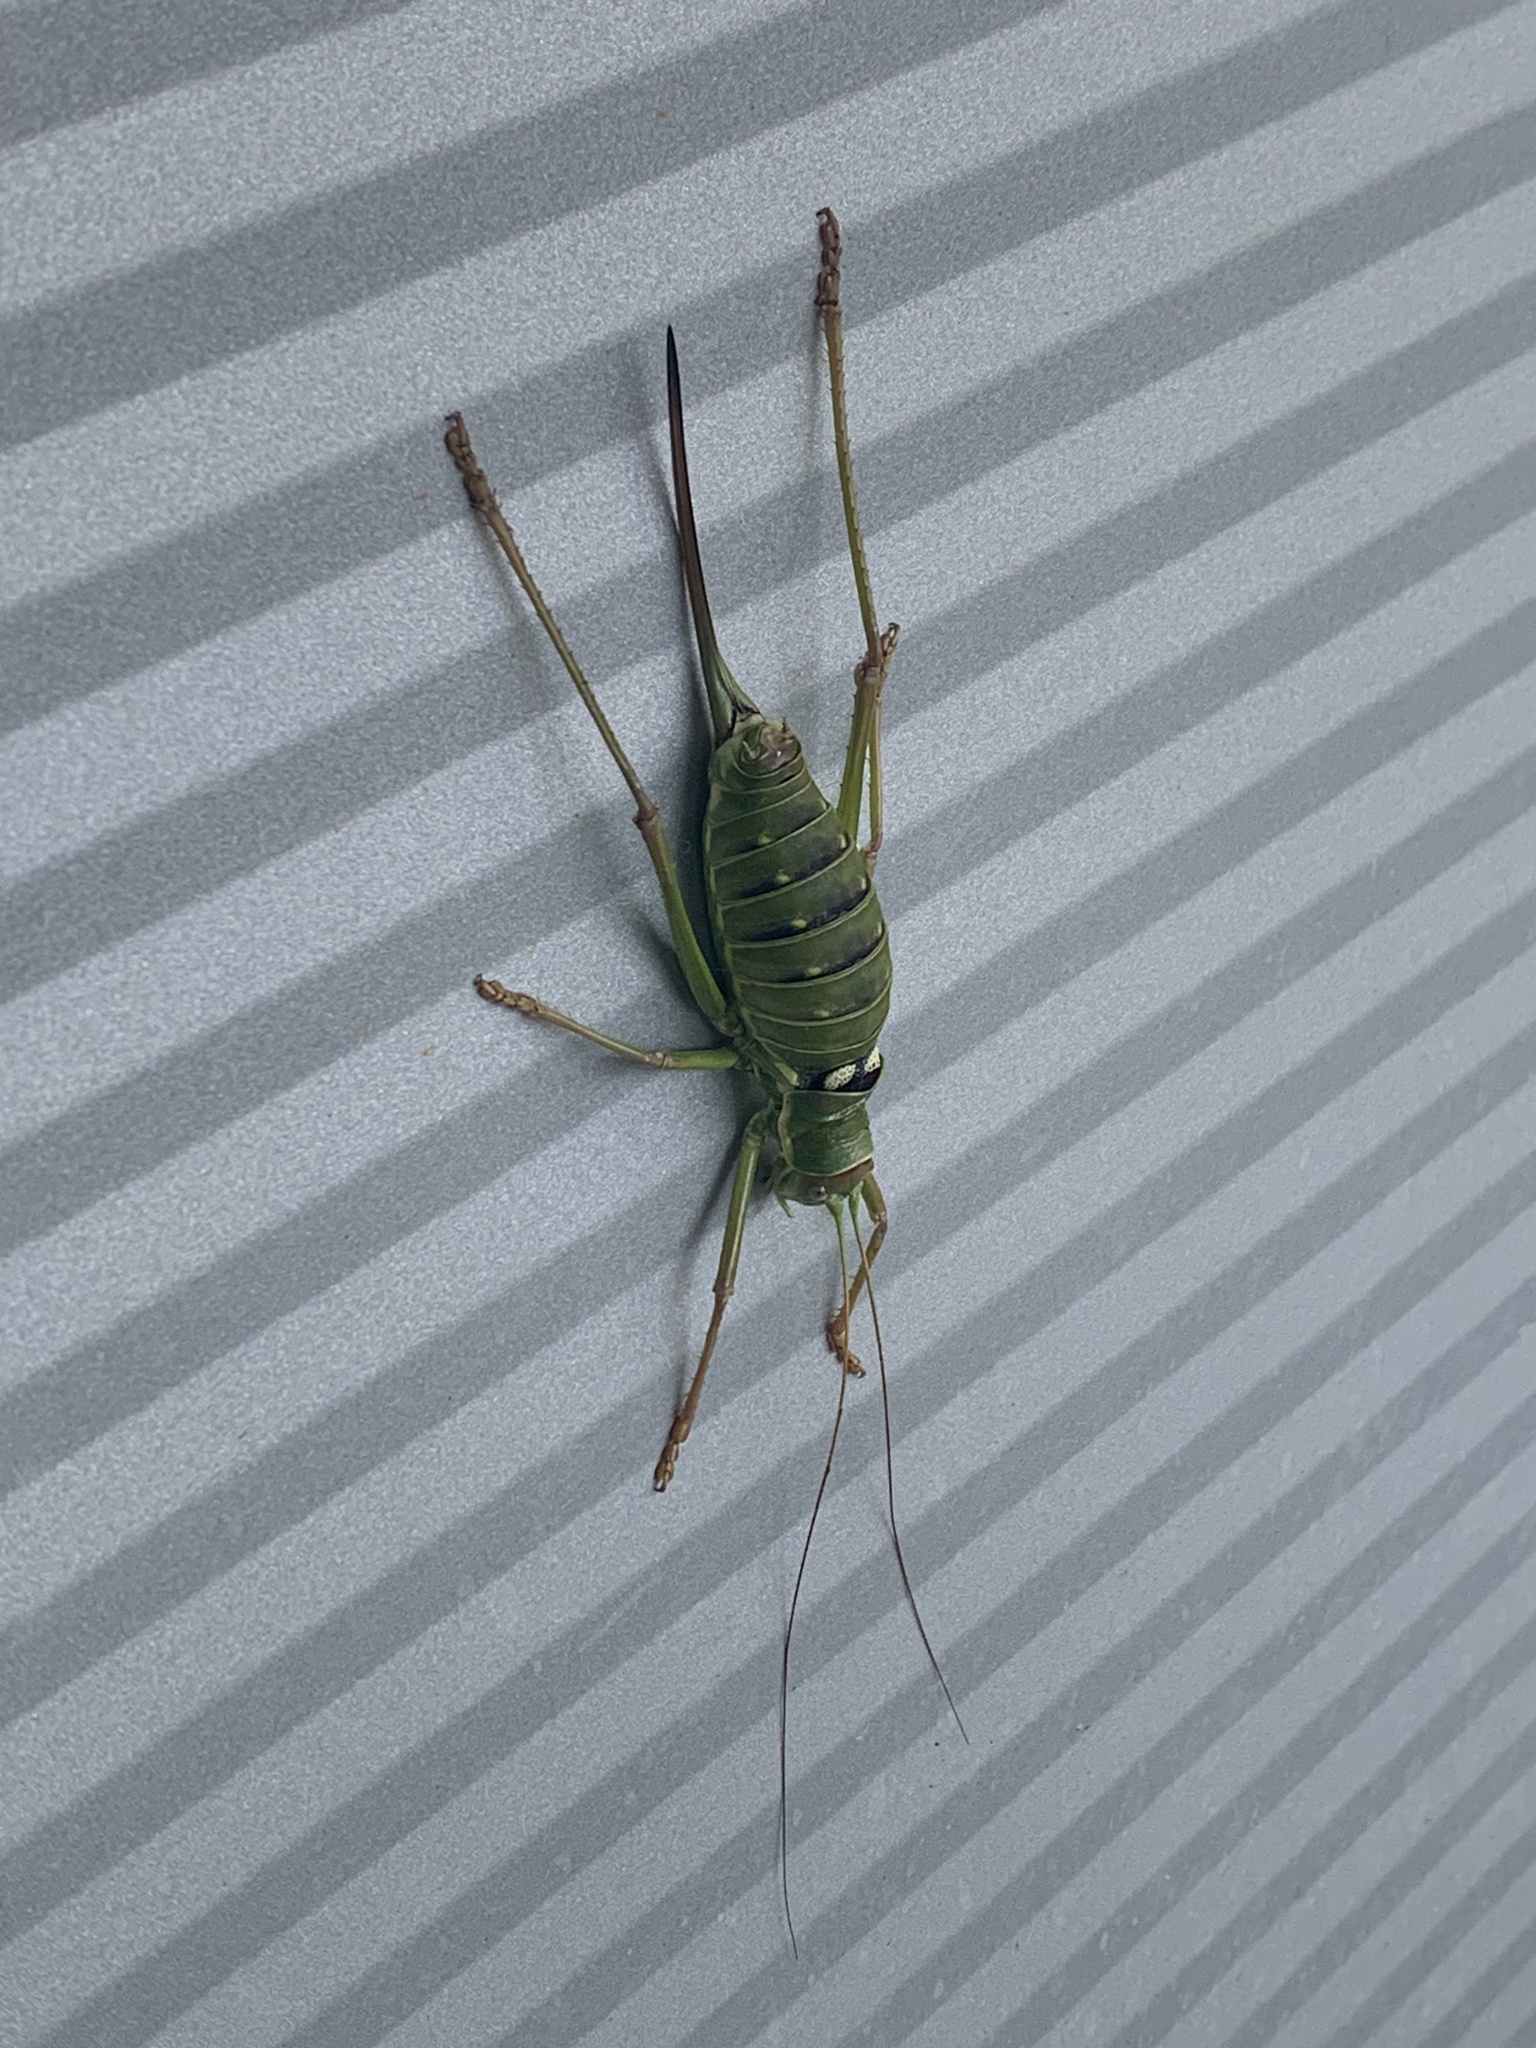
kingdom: Animalia
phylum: Arthropoda
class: Insecta
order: Orthoptera
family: Tettigoniidae
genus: Dinarippiger
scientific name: Dinarippiger discoidalis
